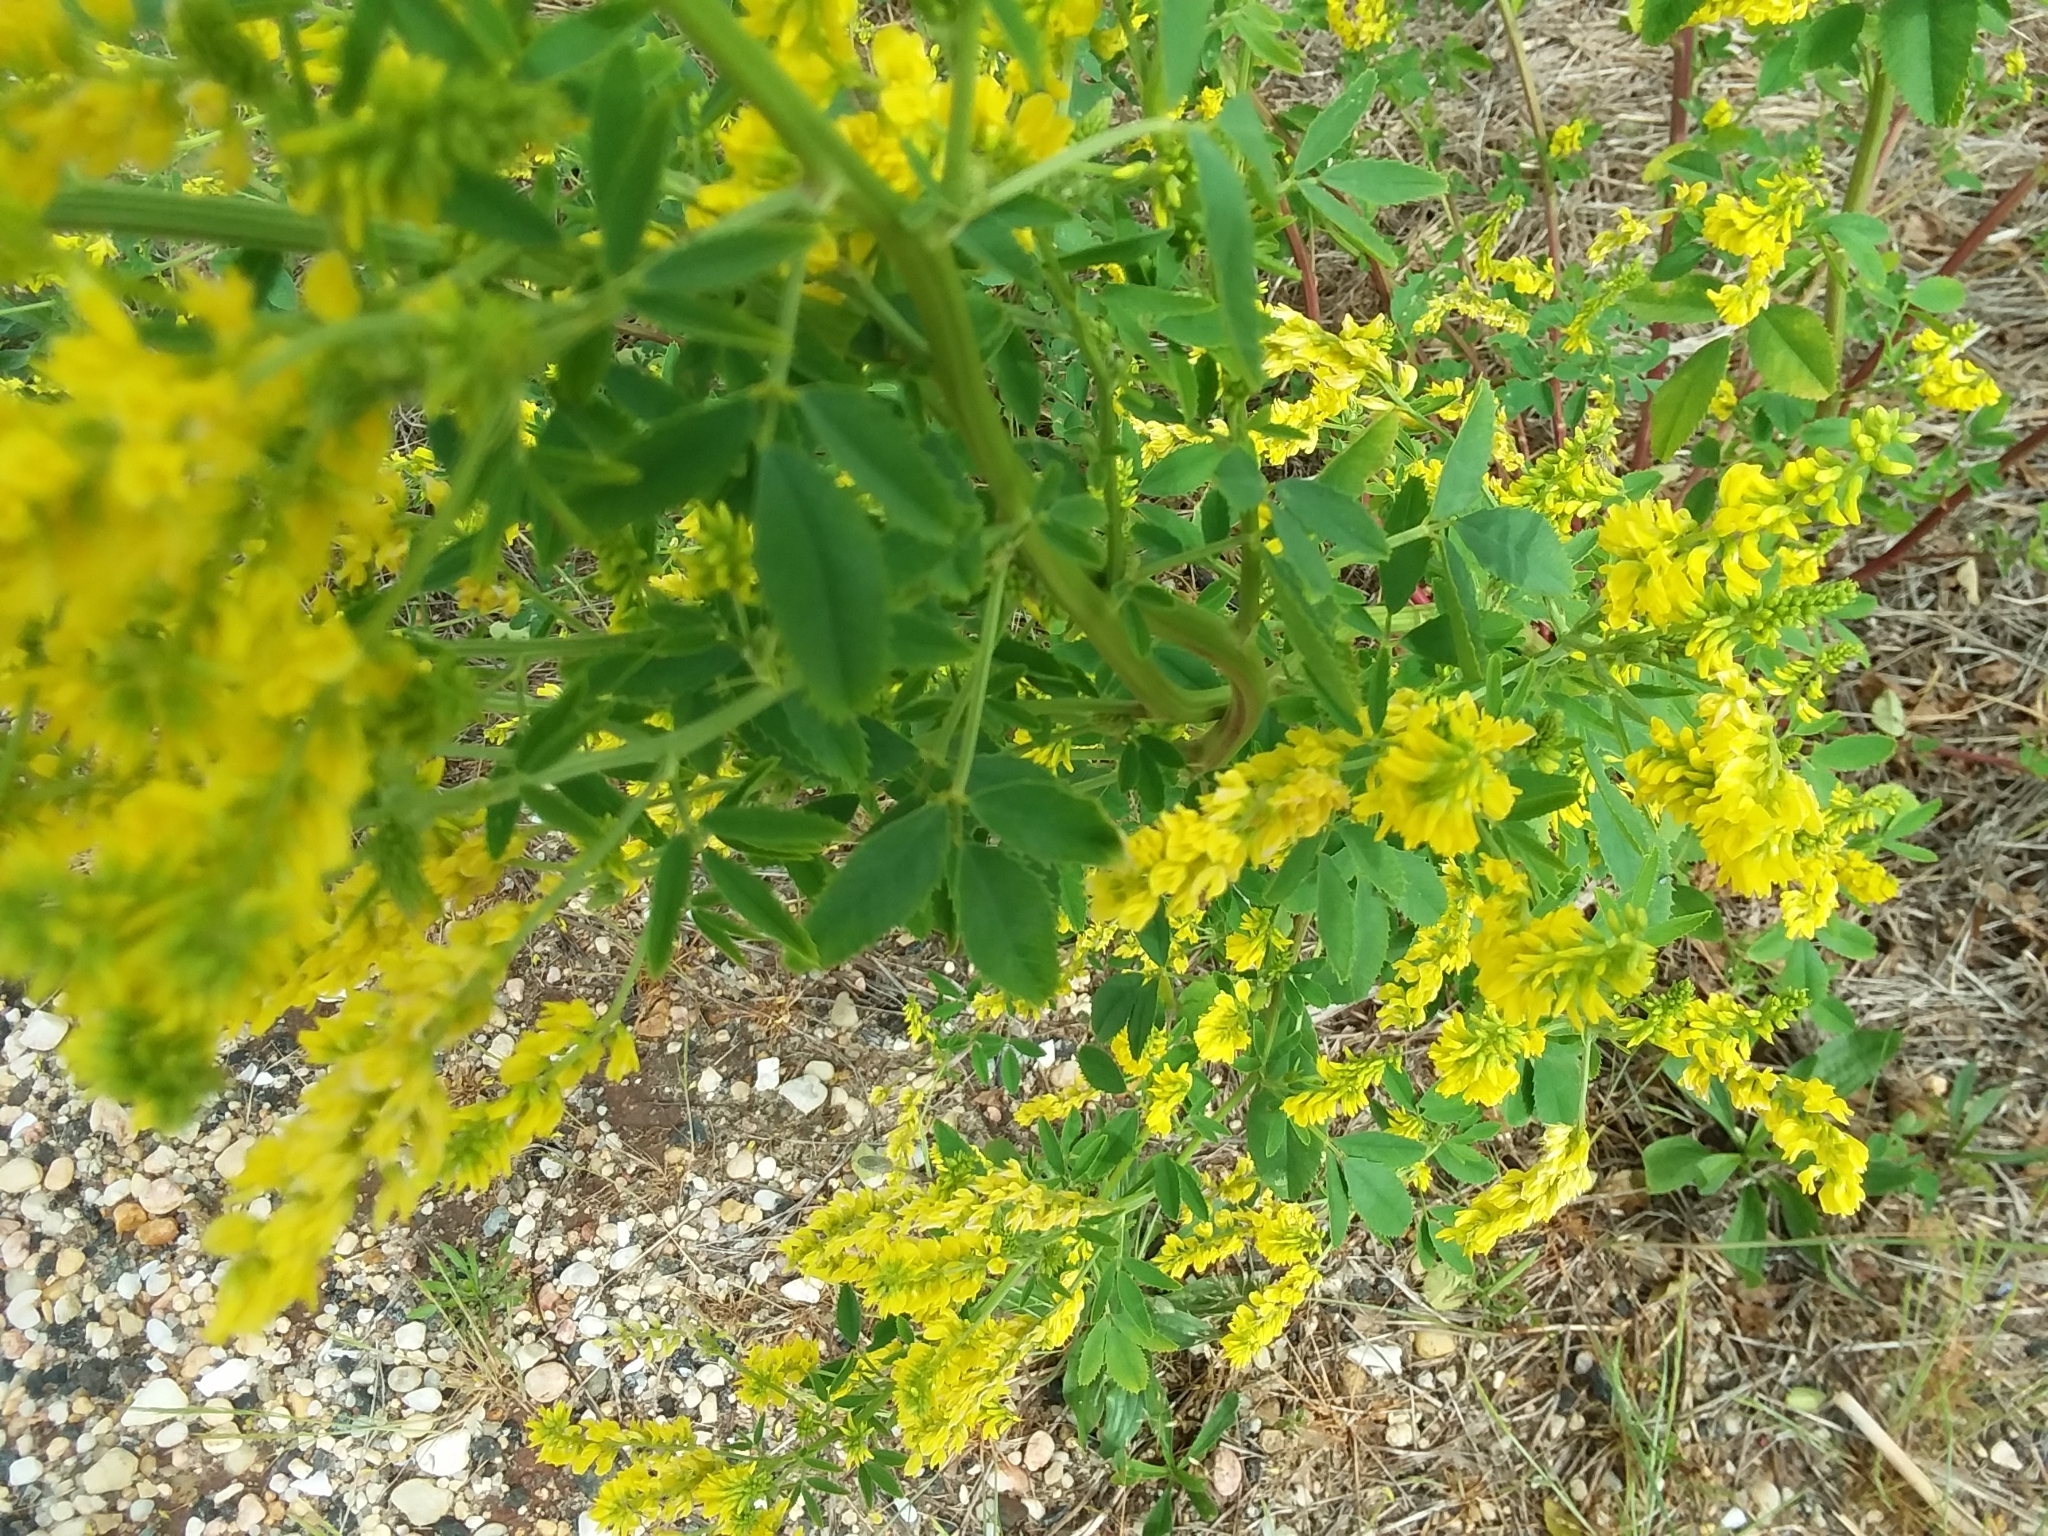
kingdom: Plantae
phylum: Tracheophyta
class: Magnoliopsida
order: Fabales
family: Fabaceae
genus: Melilotus
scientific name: Melilotus officinalis
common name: Sweetclover
